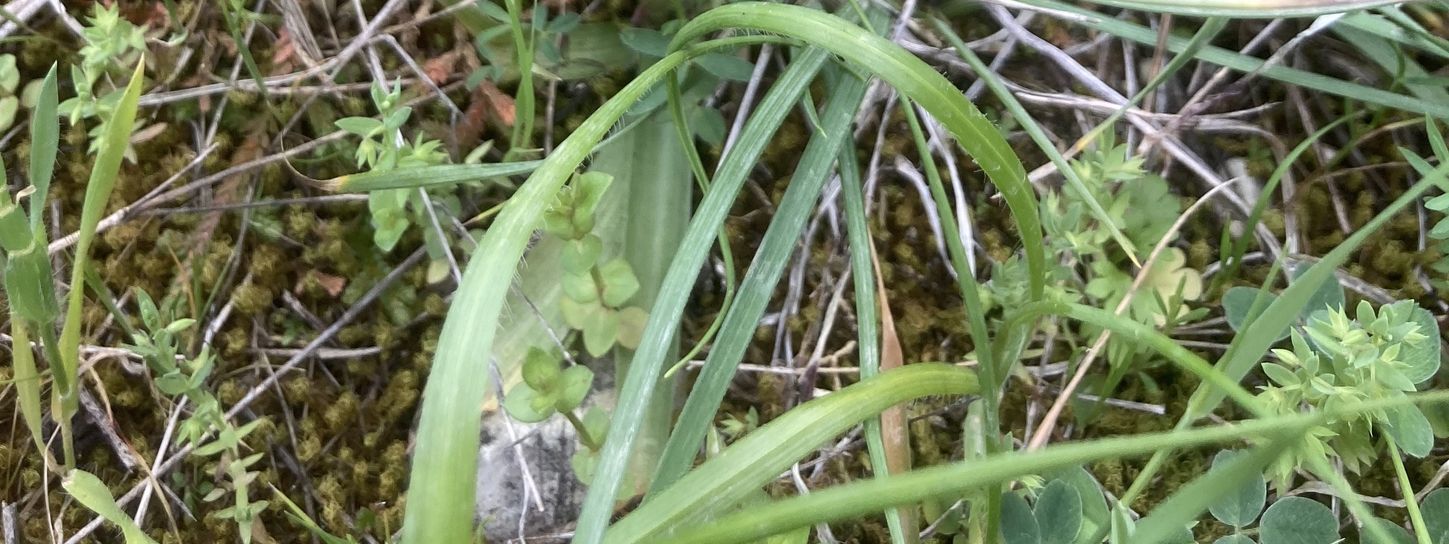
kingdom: Plantae
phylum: Tracheophyta
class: Liliopsida
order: Asparagales
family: Orchidaceae
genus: Anacamptis
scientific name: Anacamptis morio
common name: Green-winged orchid
